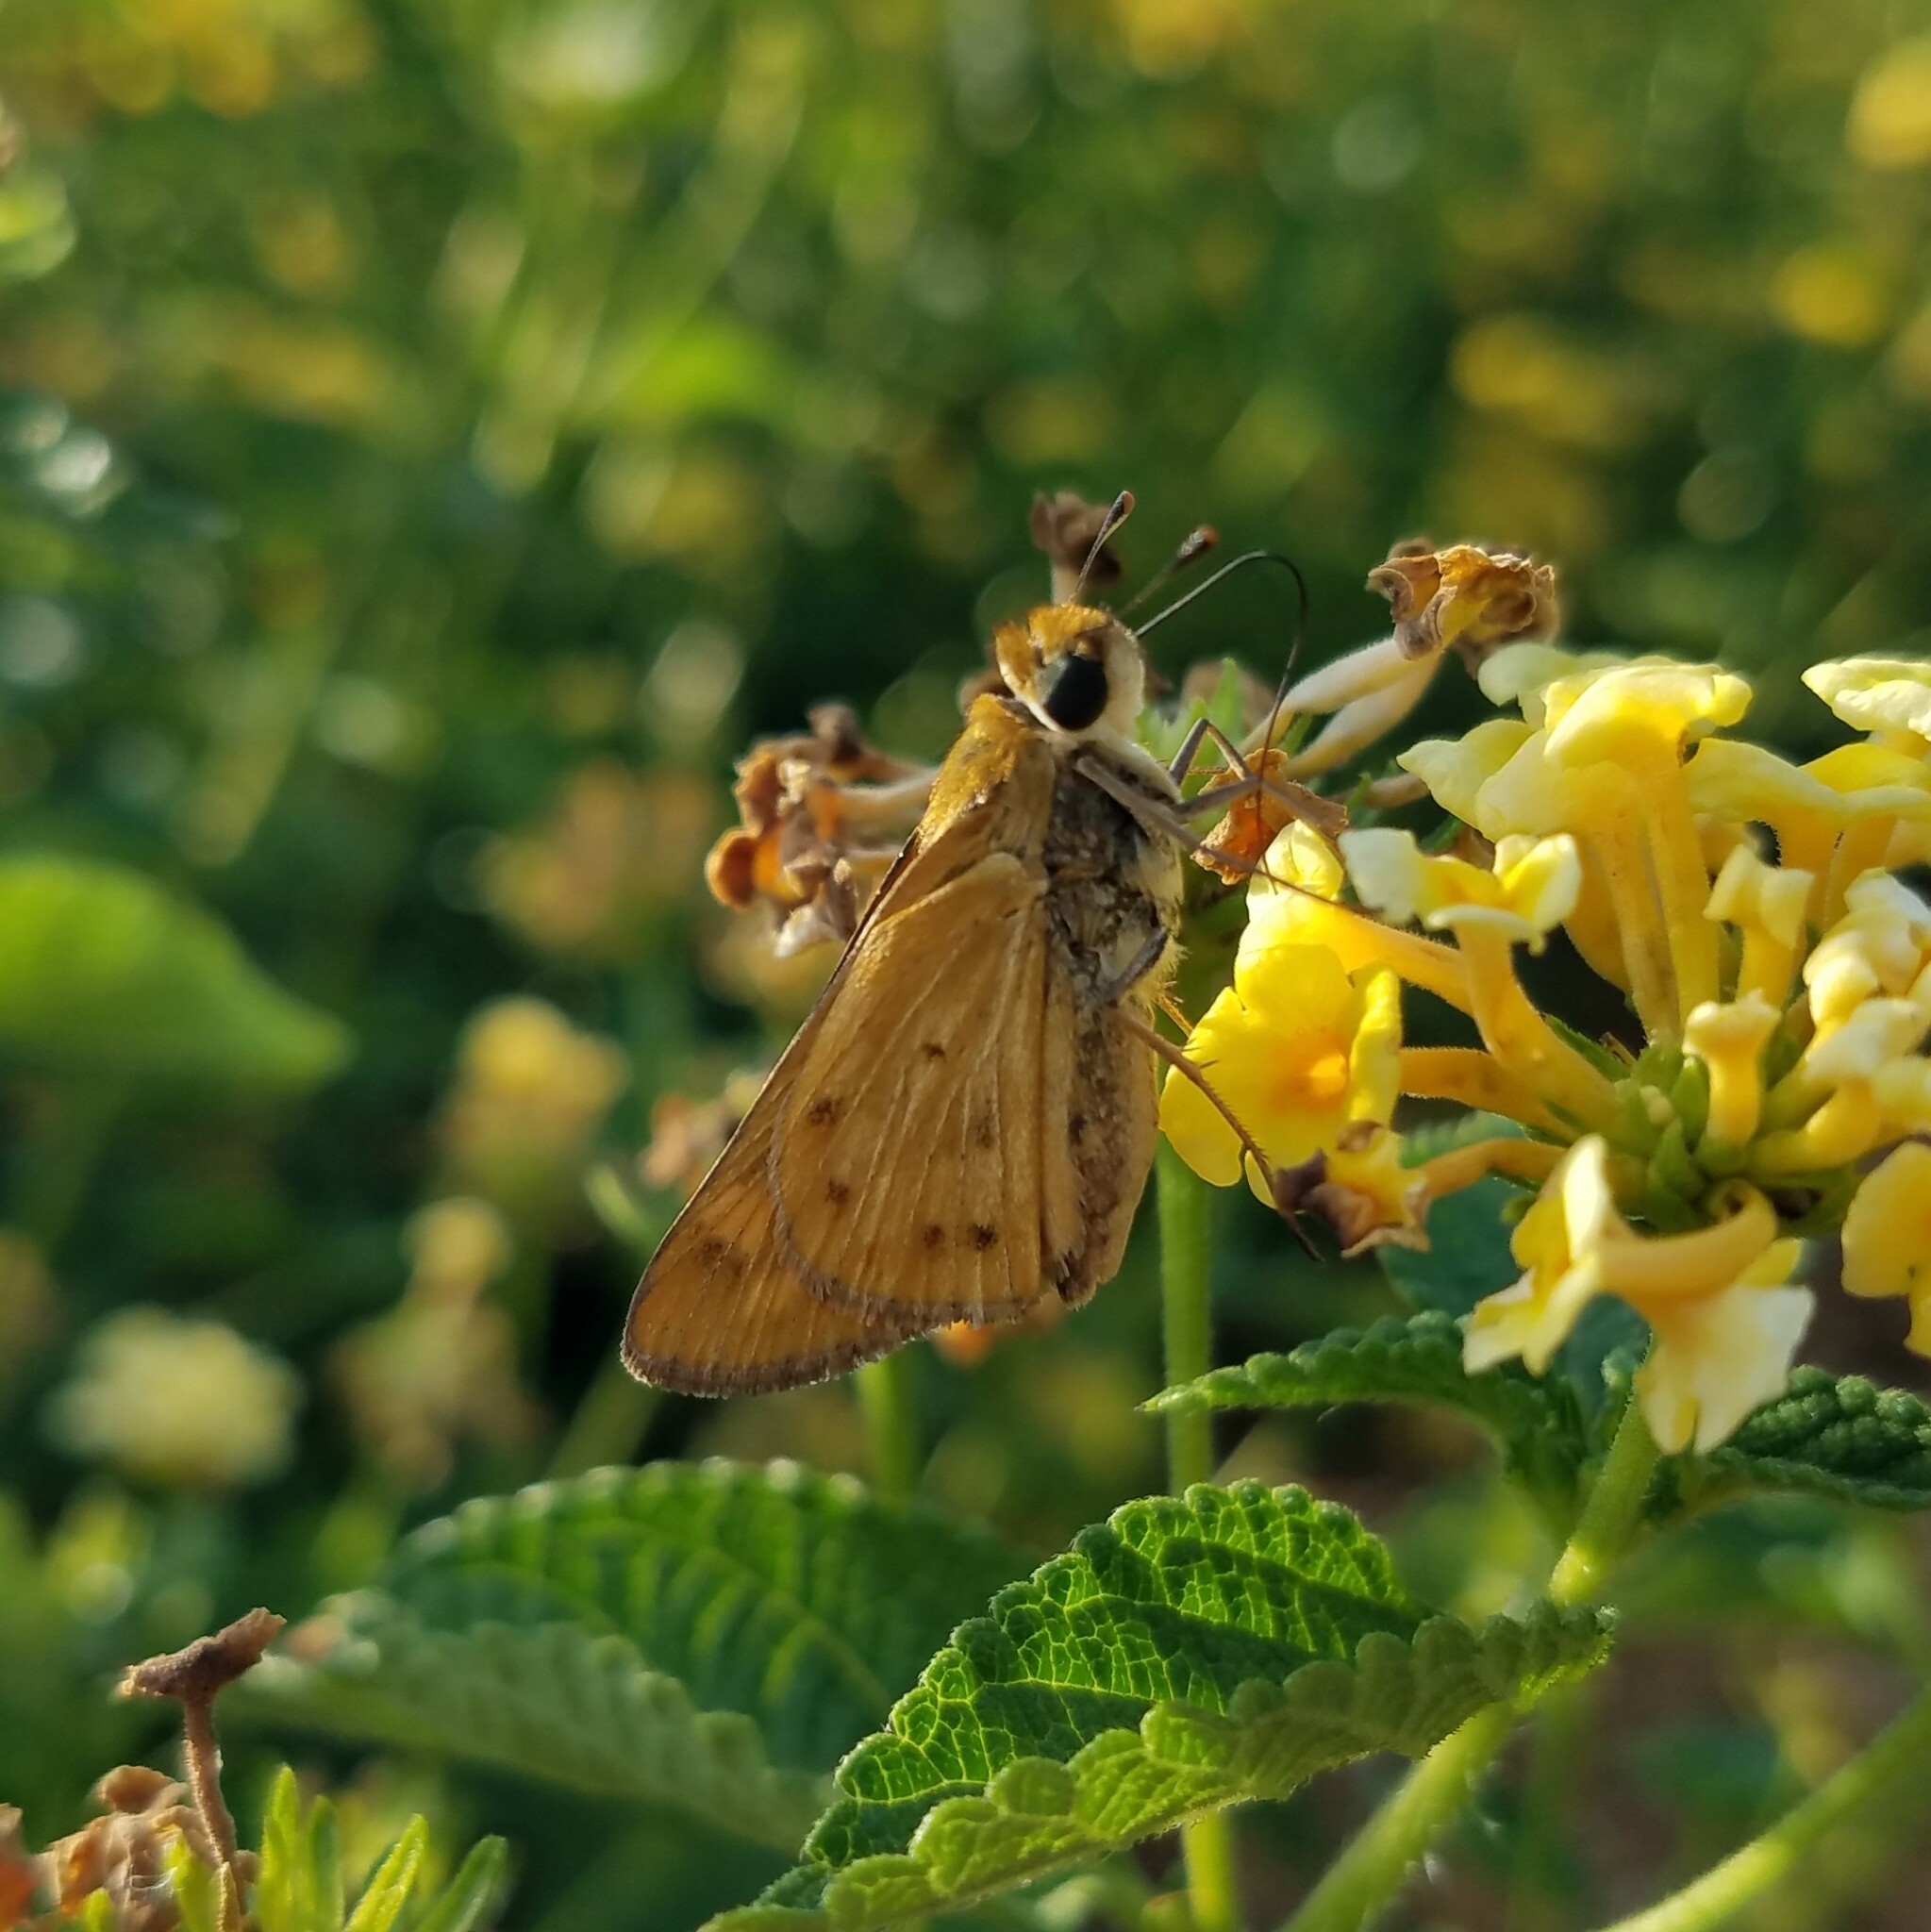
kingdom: Animalia
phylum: Arthropoda
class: Insecta
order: Lepidoptera
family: Hesperiidae
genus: Hylephila
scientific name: Hylephila phyleus
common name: Fiery skipper
